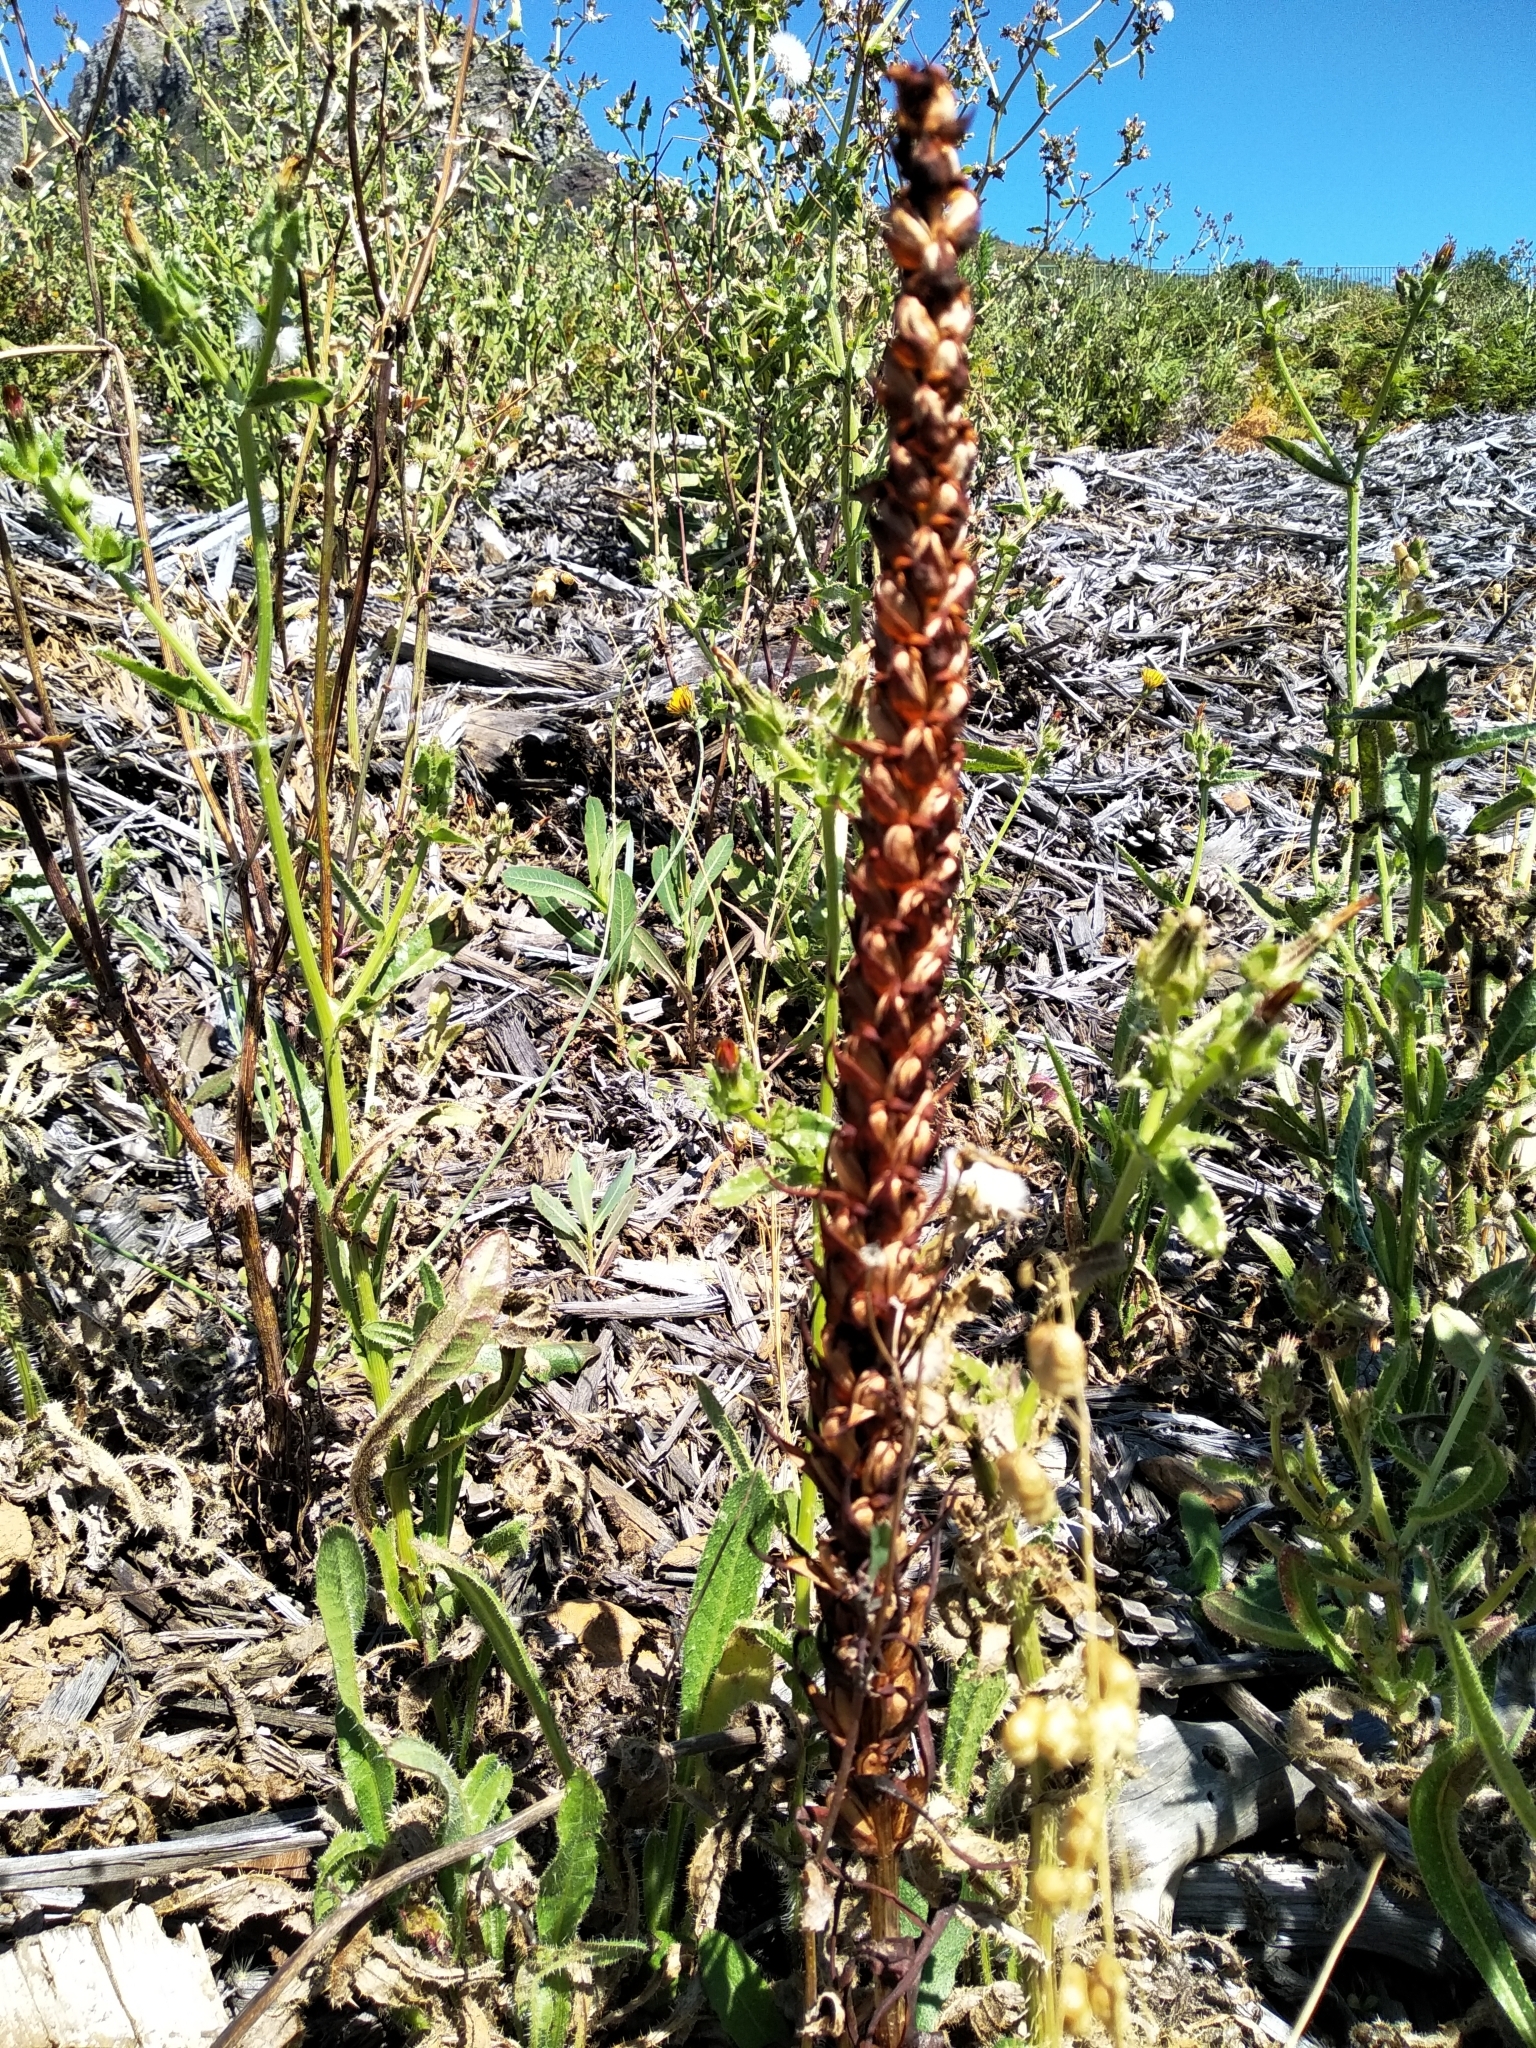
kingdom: Plantae
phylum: Tracheophyta
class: Liliopsida
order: Asparagales
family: Orchidaceae
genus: Disa
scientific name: Disa bracteata
